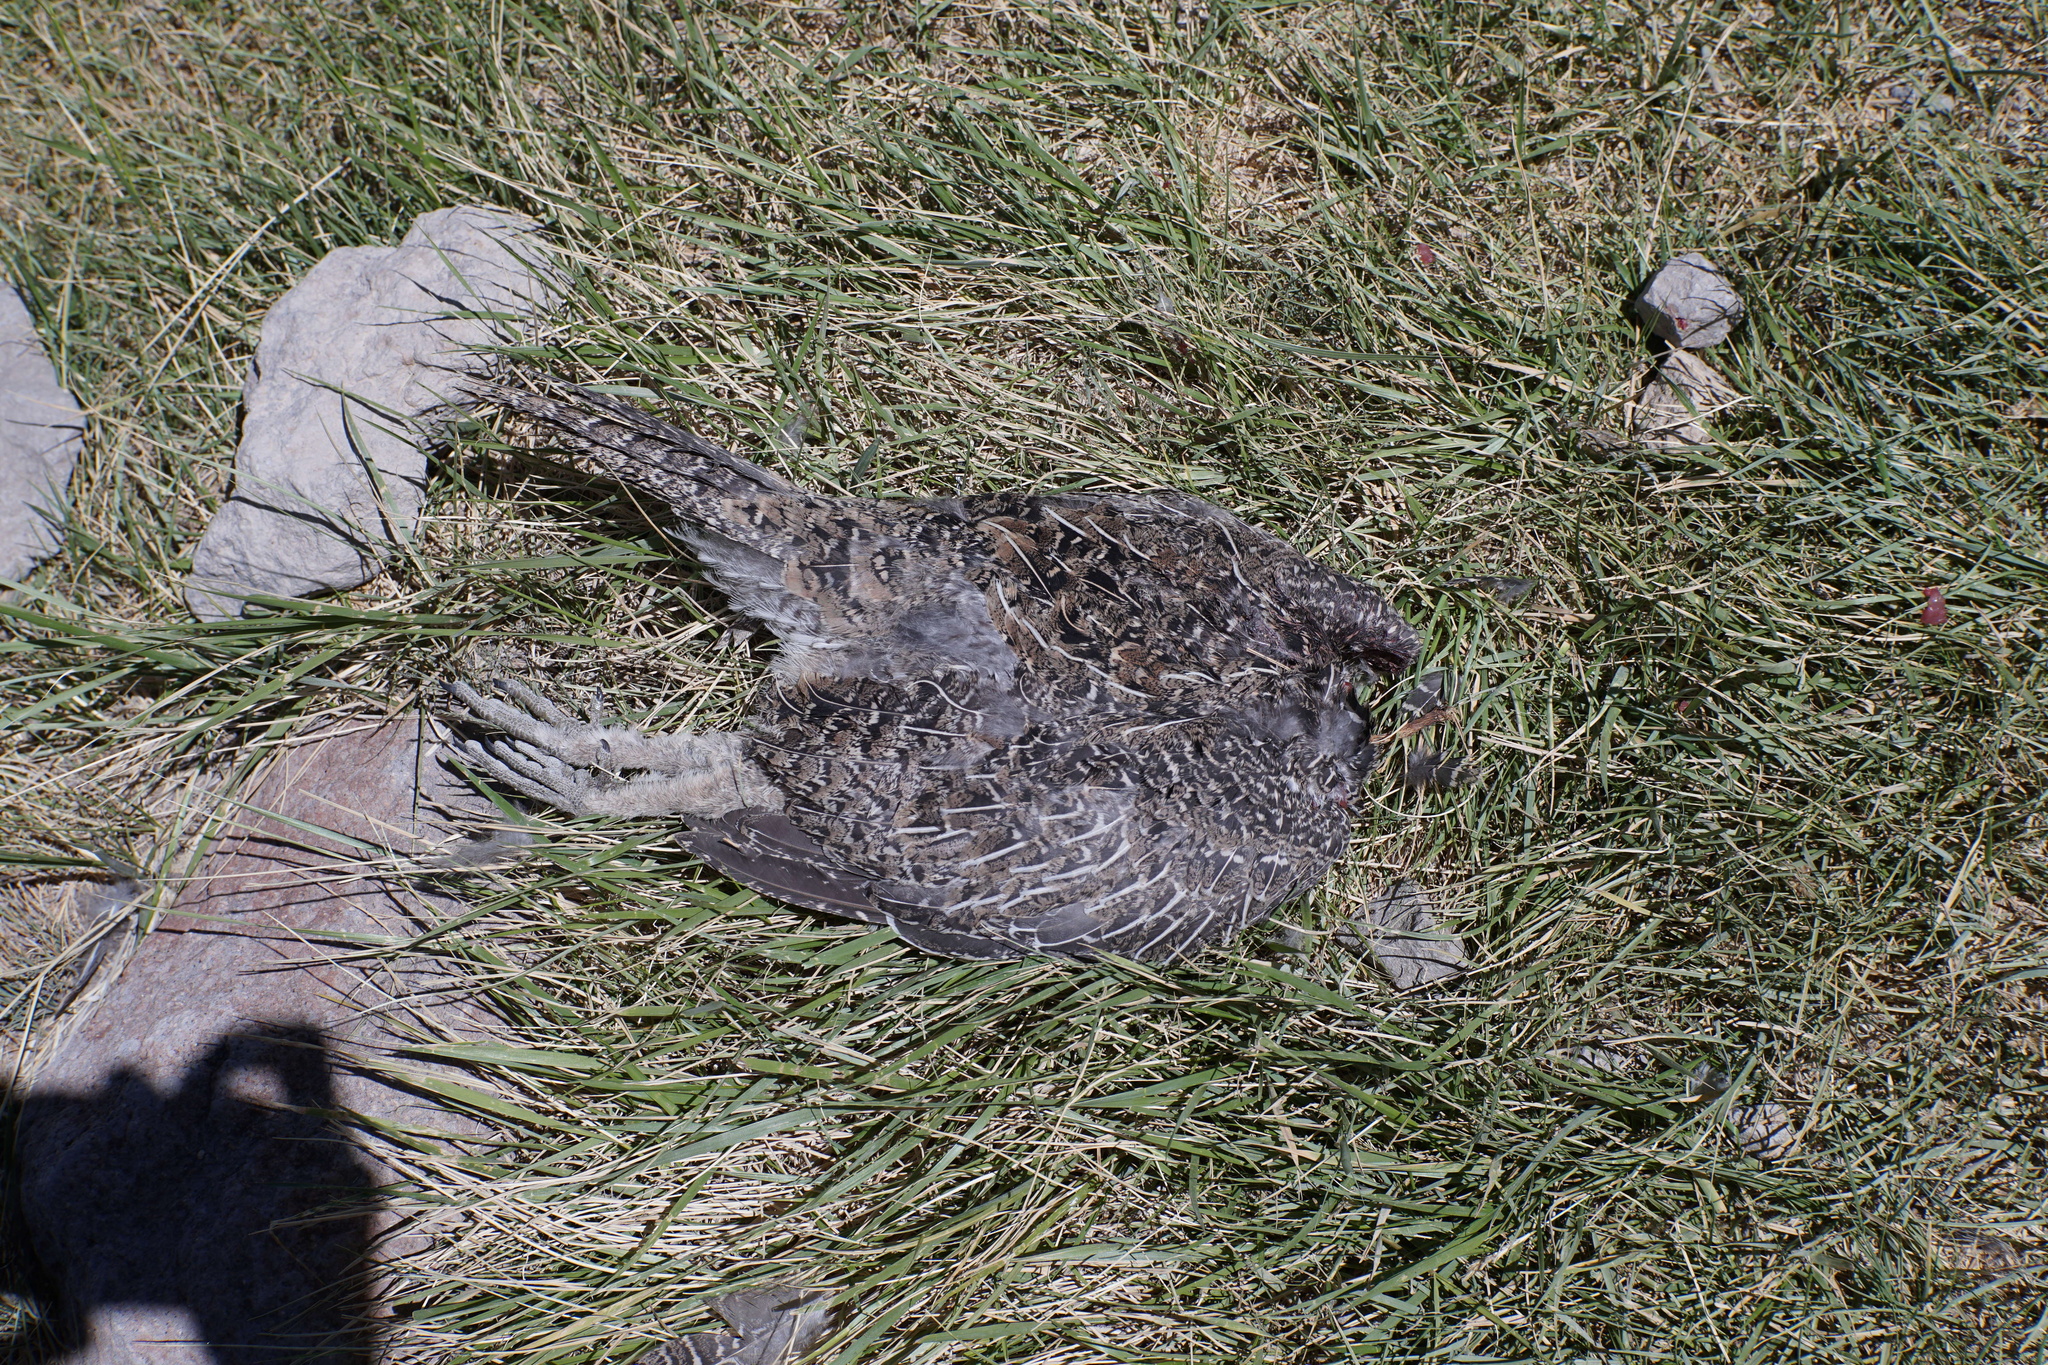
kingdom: Animalia
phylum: Chordata
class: Aves
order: Galliformes
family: Phasianidae
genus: Centrocercus
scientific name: Centrocercus urophasianus
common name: Sage grouse
